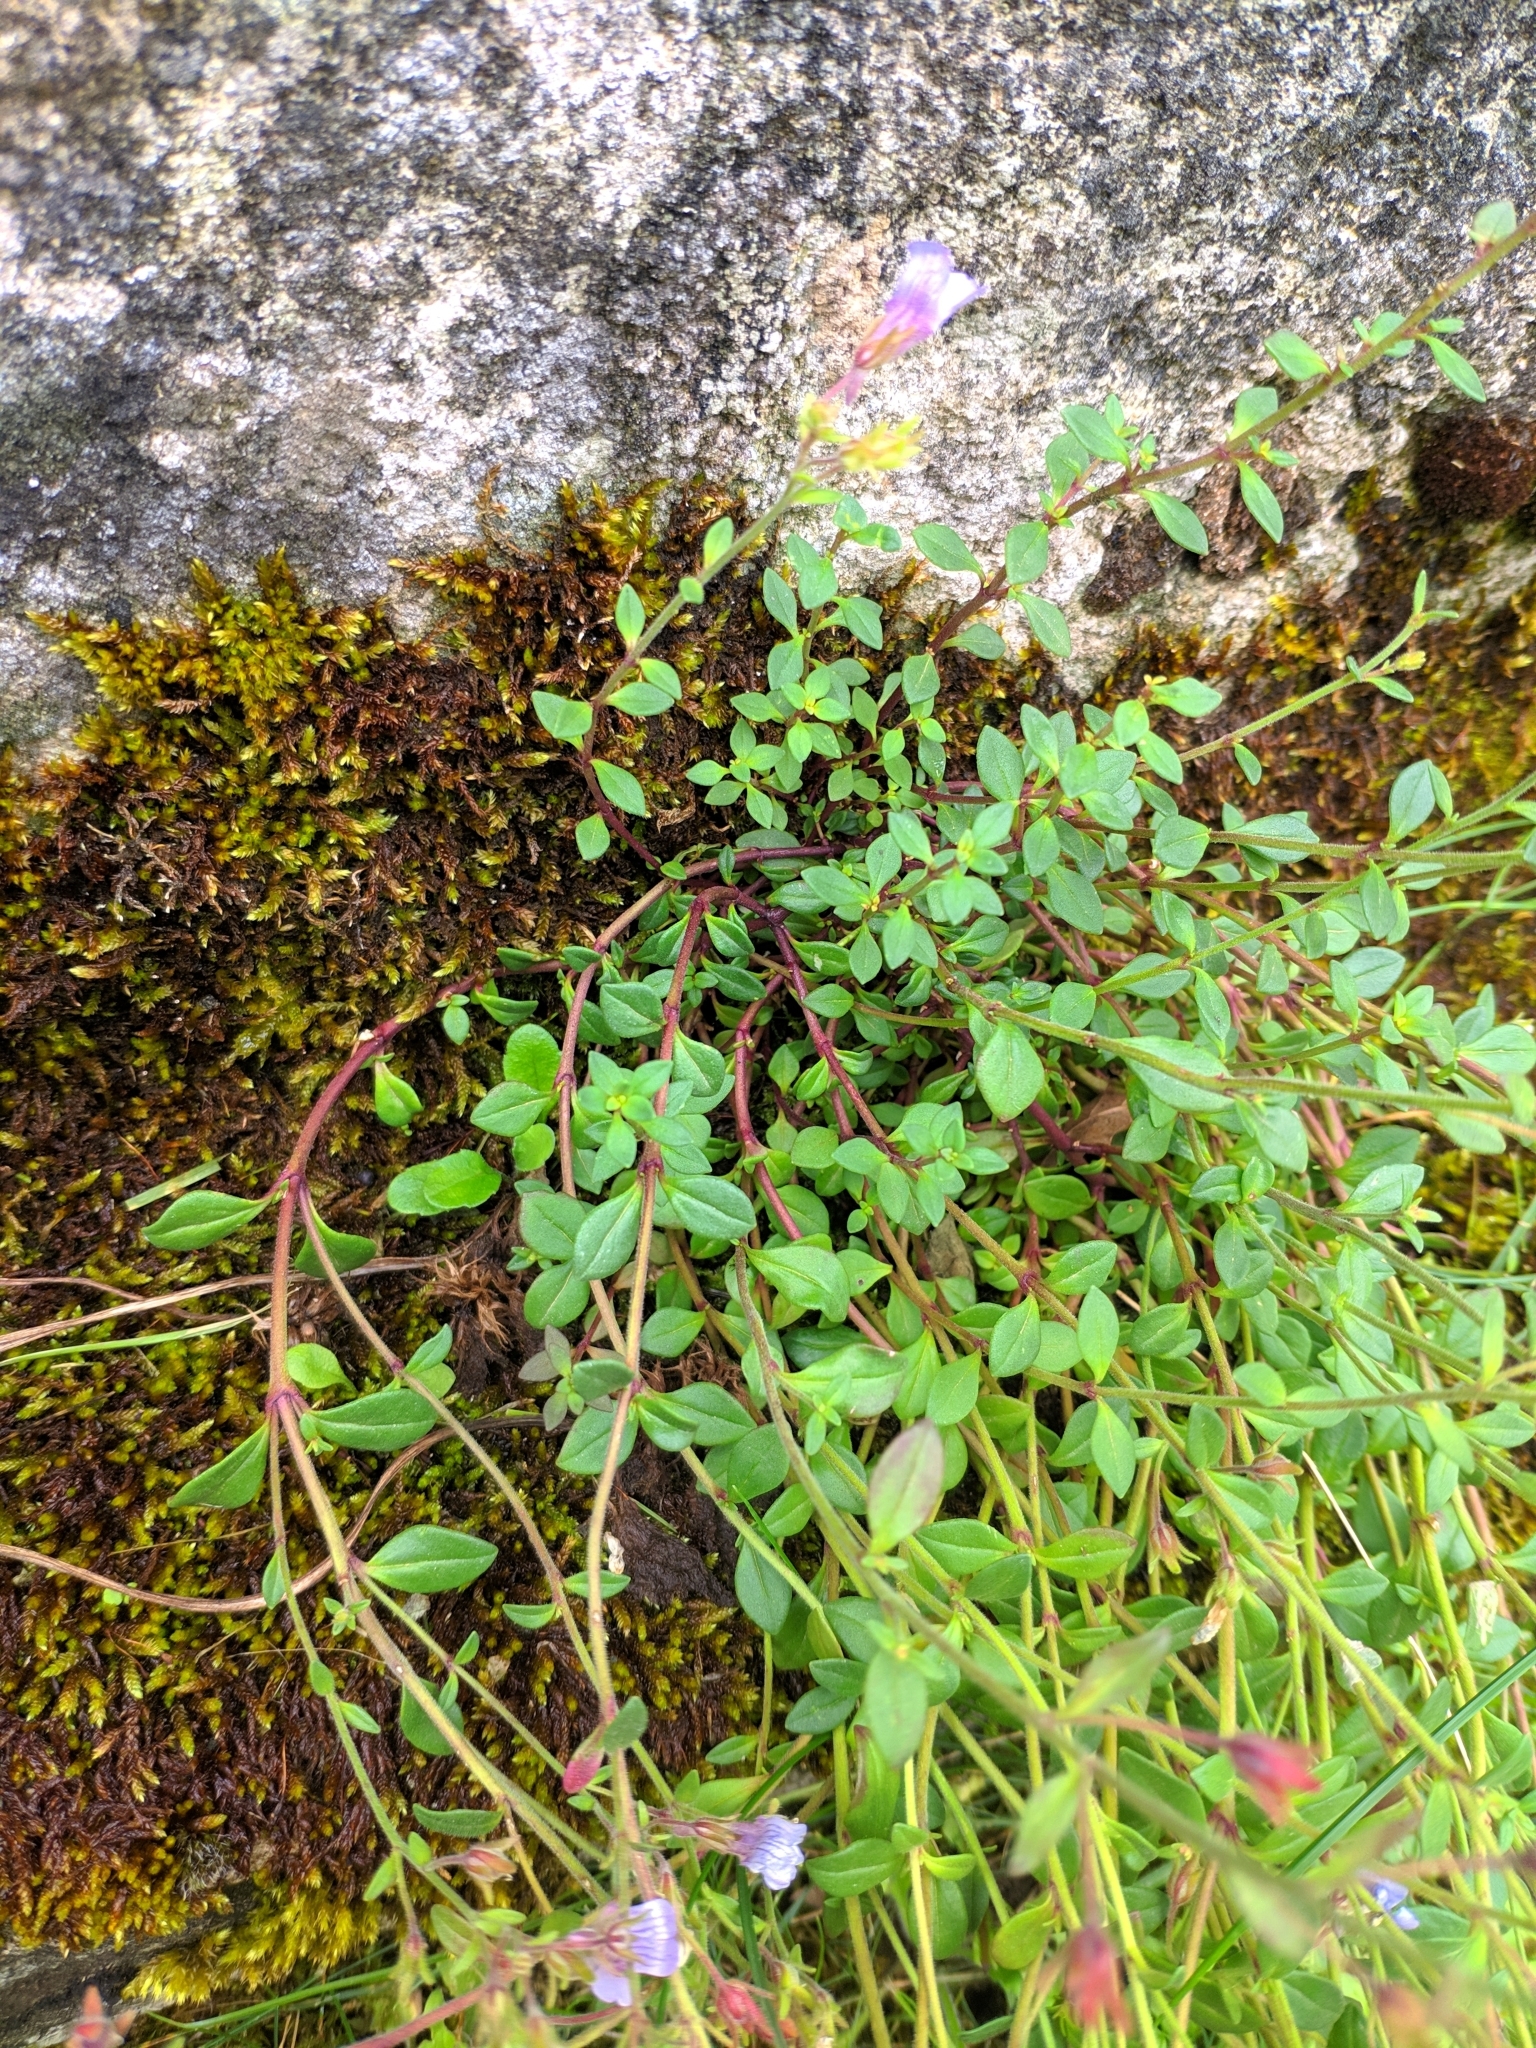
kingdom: Plantae
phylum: Tracheophyta
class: Magnoliopsida
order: Lamiales
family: Plantaginaceae
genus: Chaenorhinum
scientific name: Chaenorhinum origanifolium
